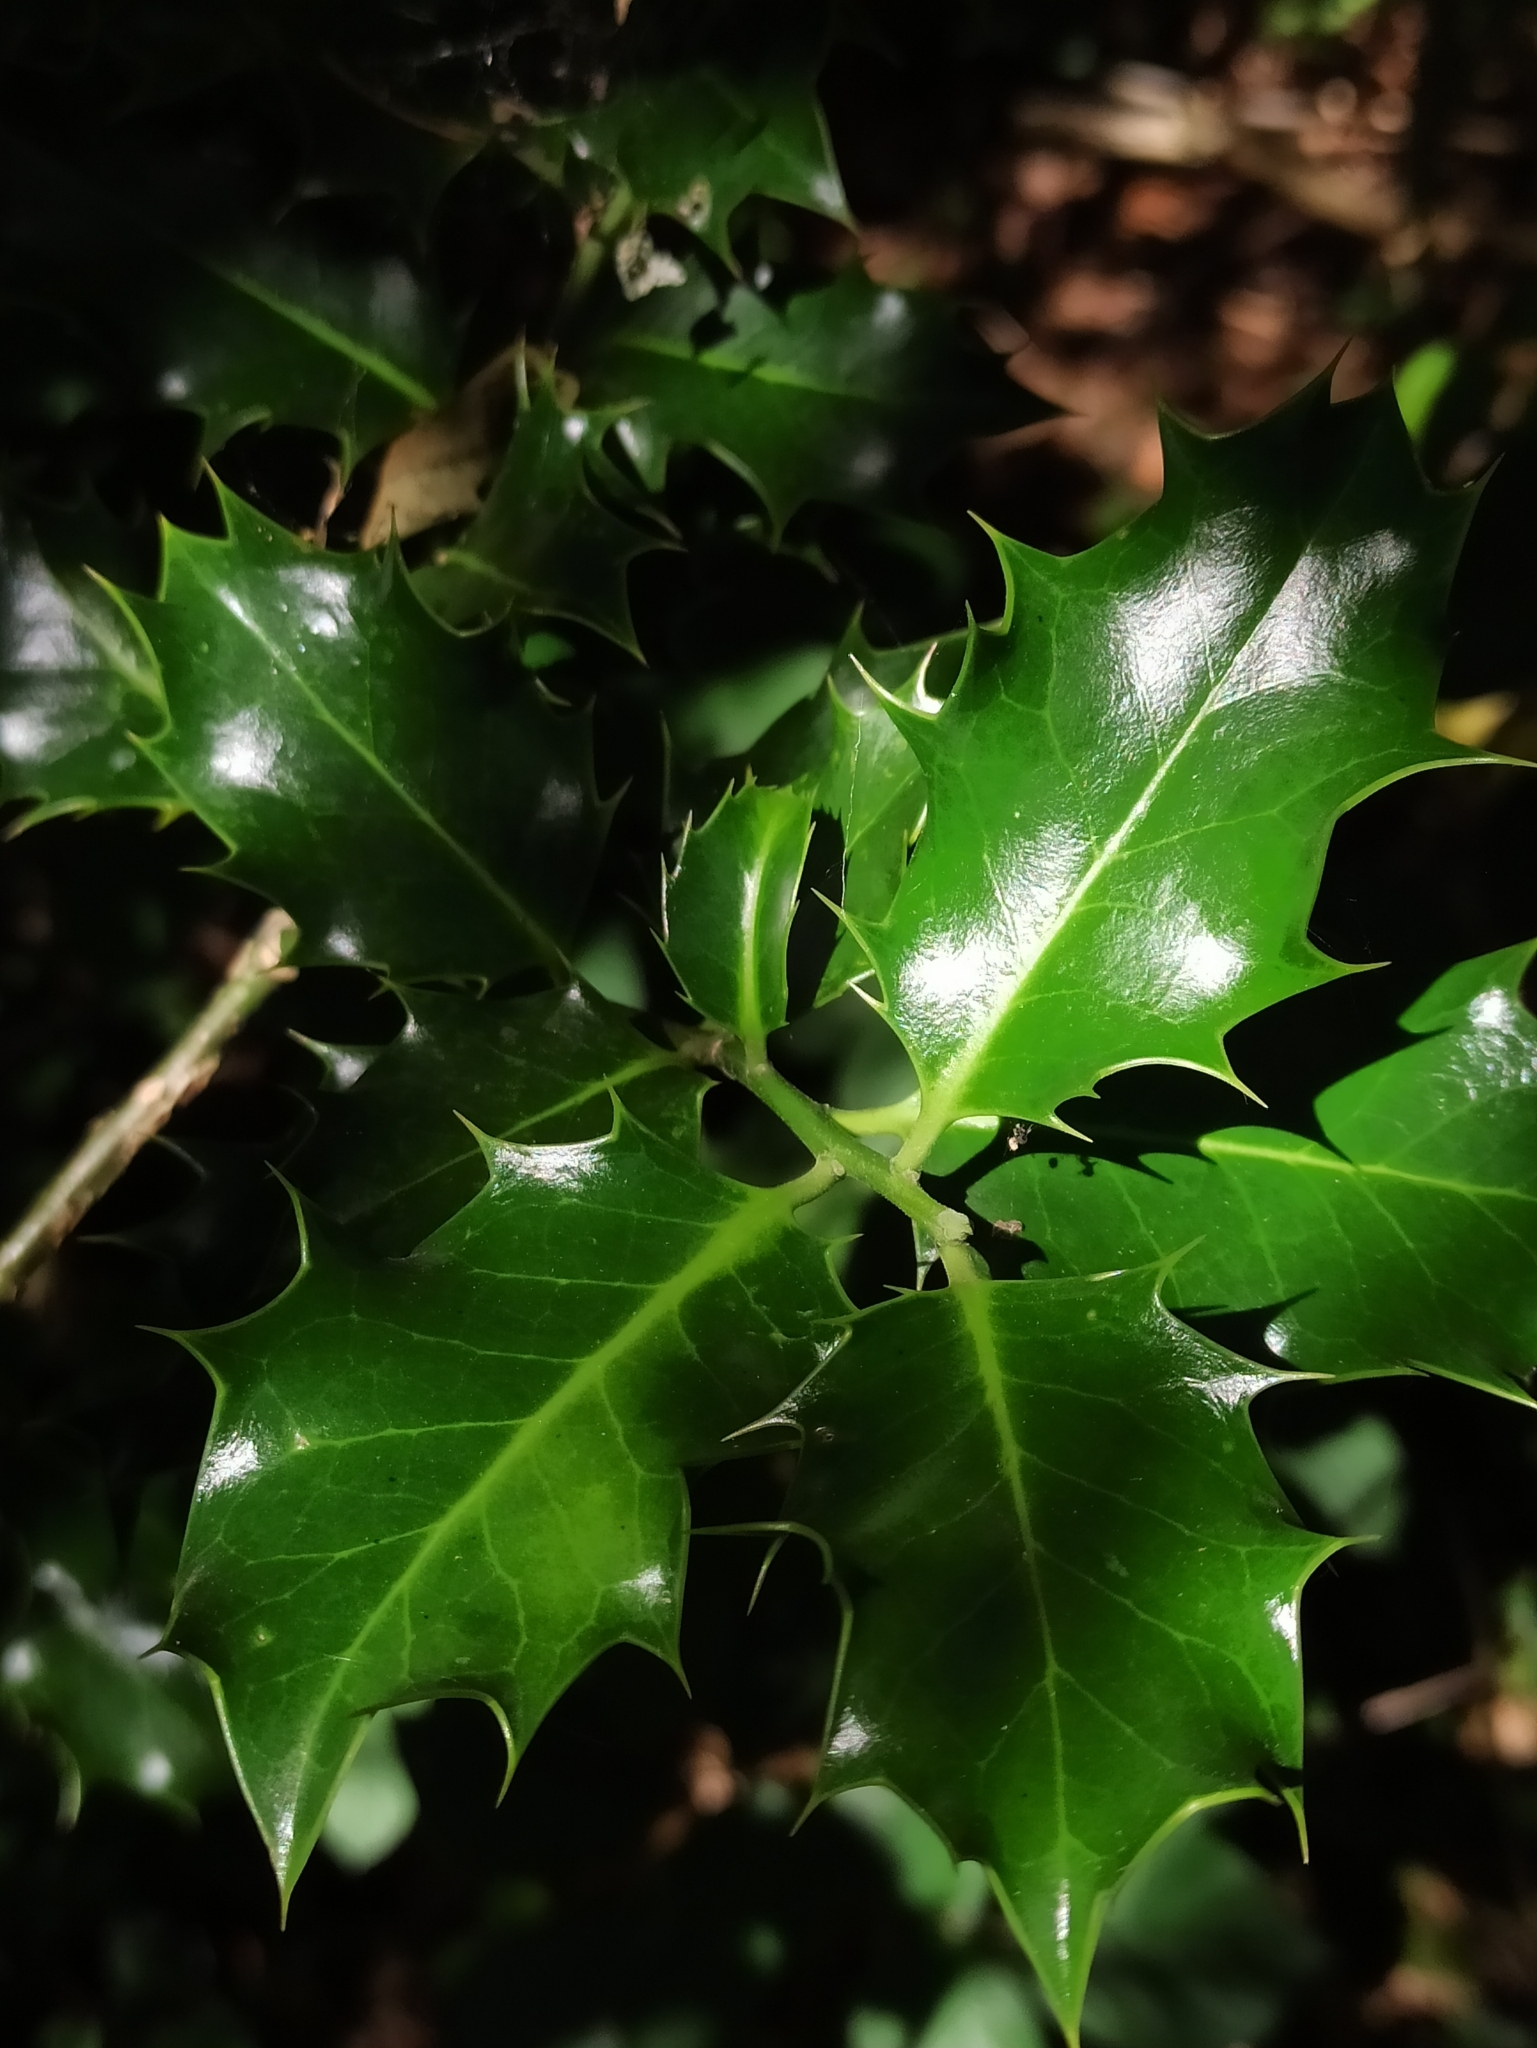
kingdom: Plantae
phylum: Tracheophyta
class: Magnoliopsida
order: Aquifoliales
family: Aquifoliaceae
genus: Ilex
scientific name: Ilex aquifolium
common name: English holly
